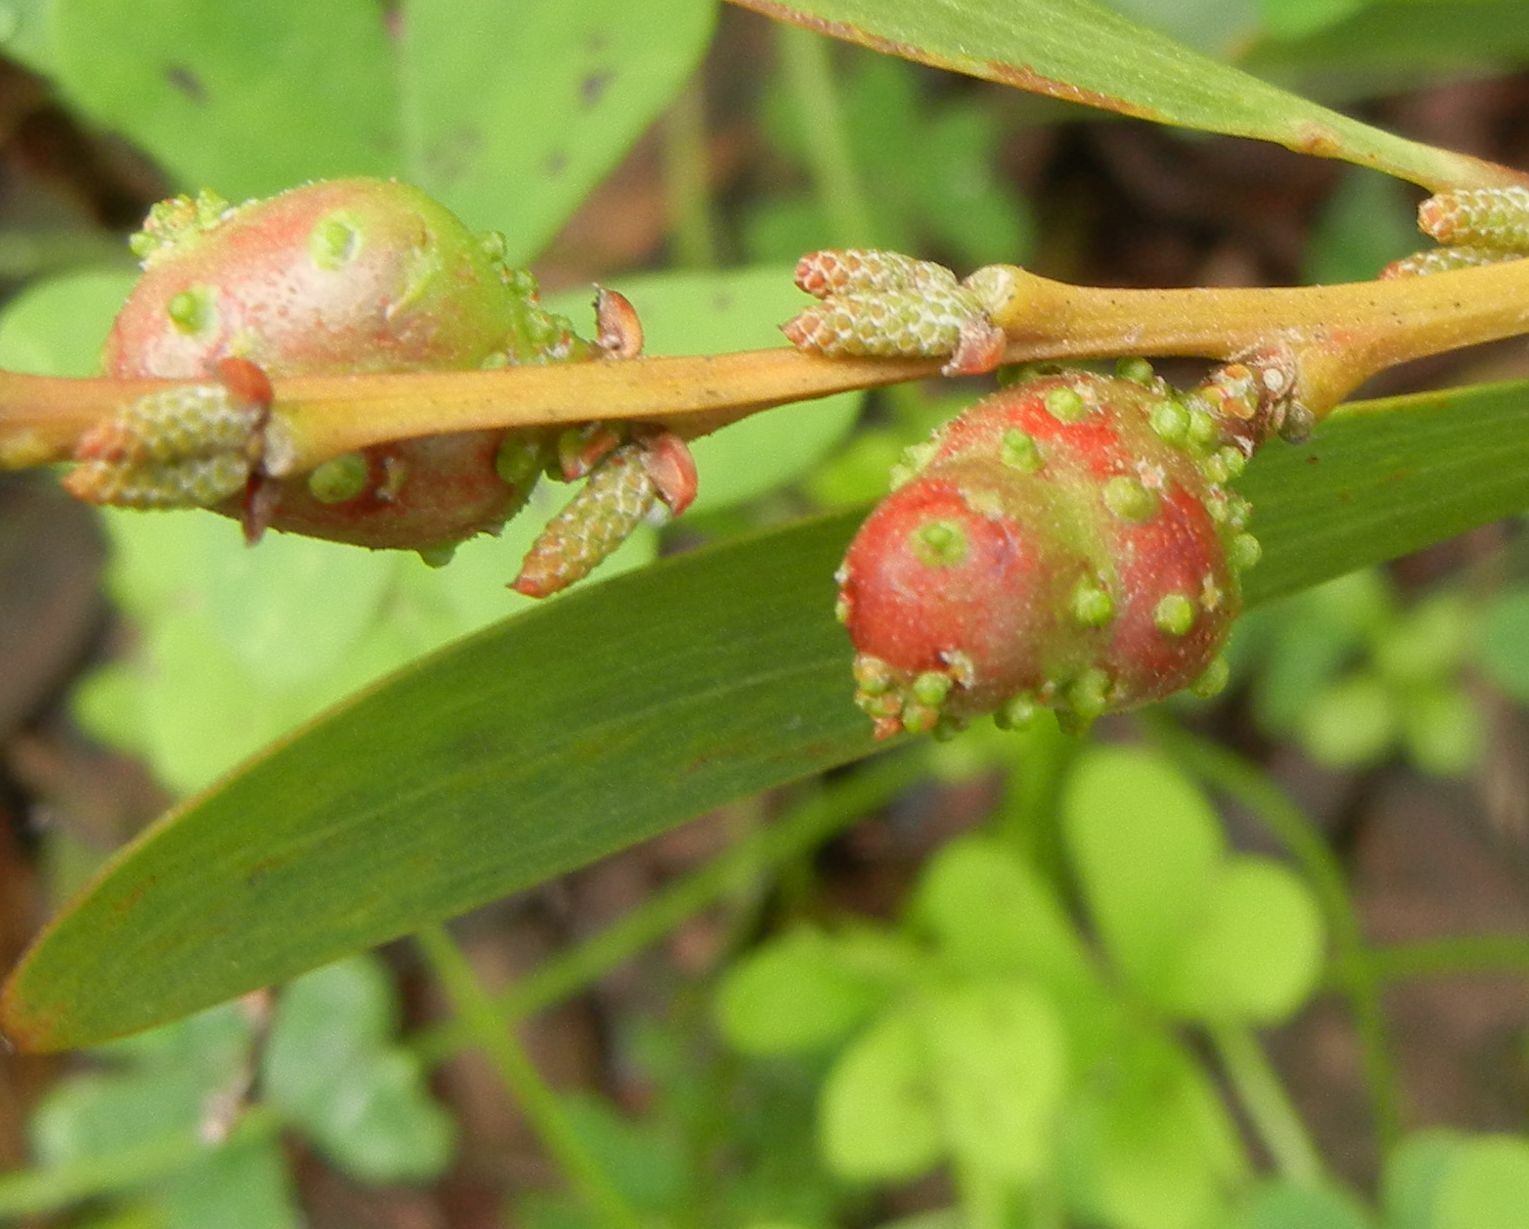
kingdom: Animalia
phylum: Arthropoda
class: Insecta
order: Hymenoptera
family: Pteromalidae
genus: Trichilogaster
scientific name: Trichilogaster acaciaelongifoliae
